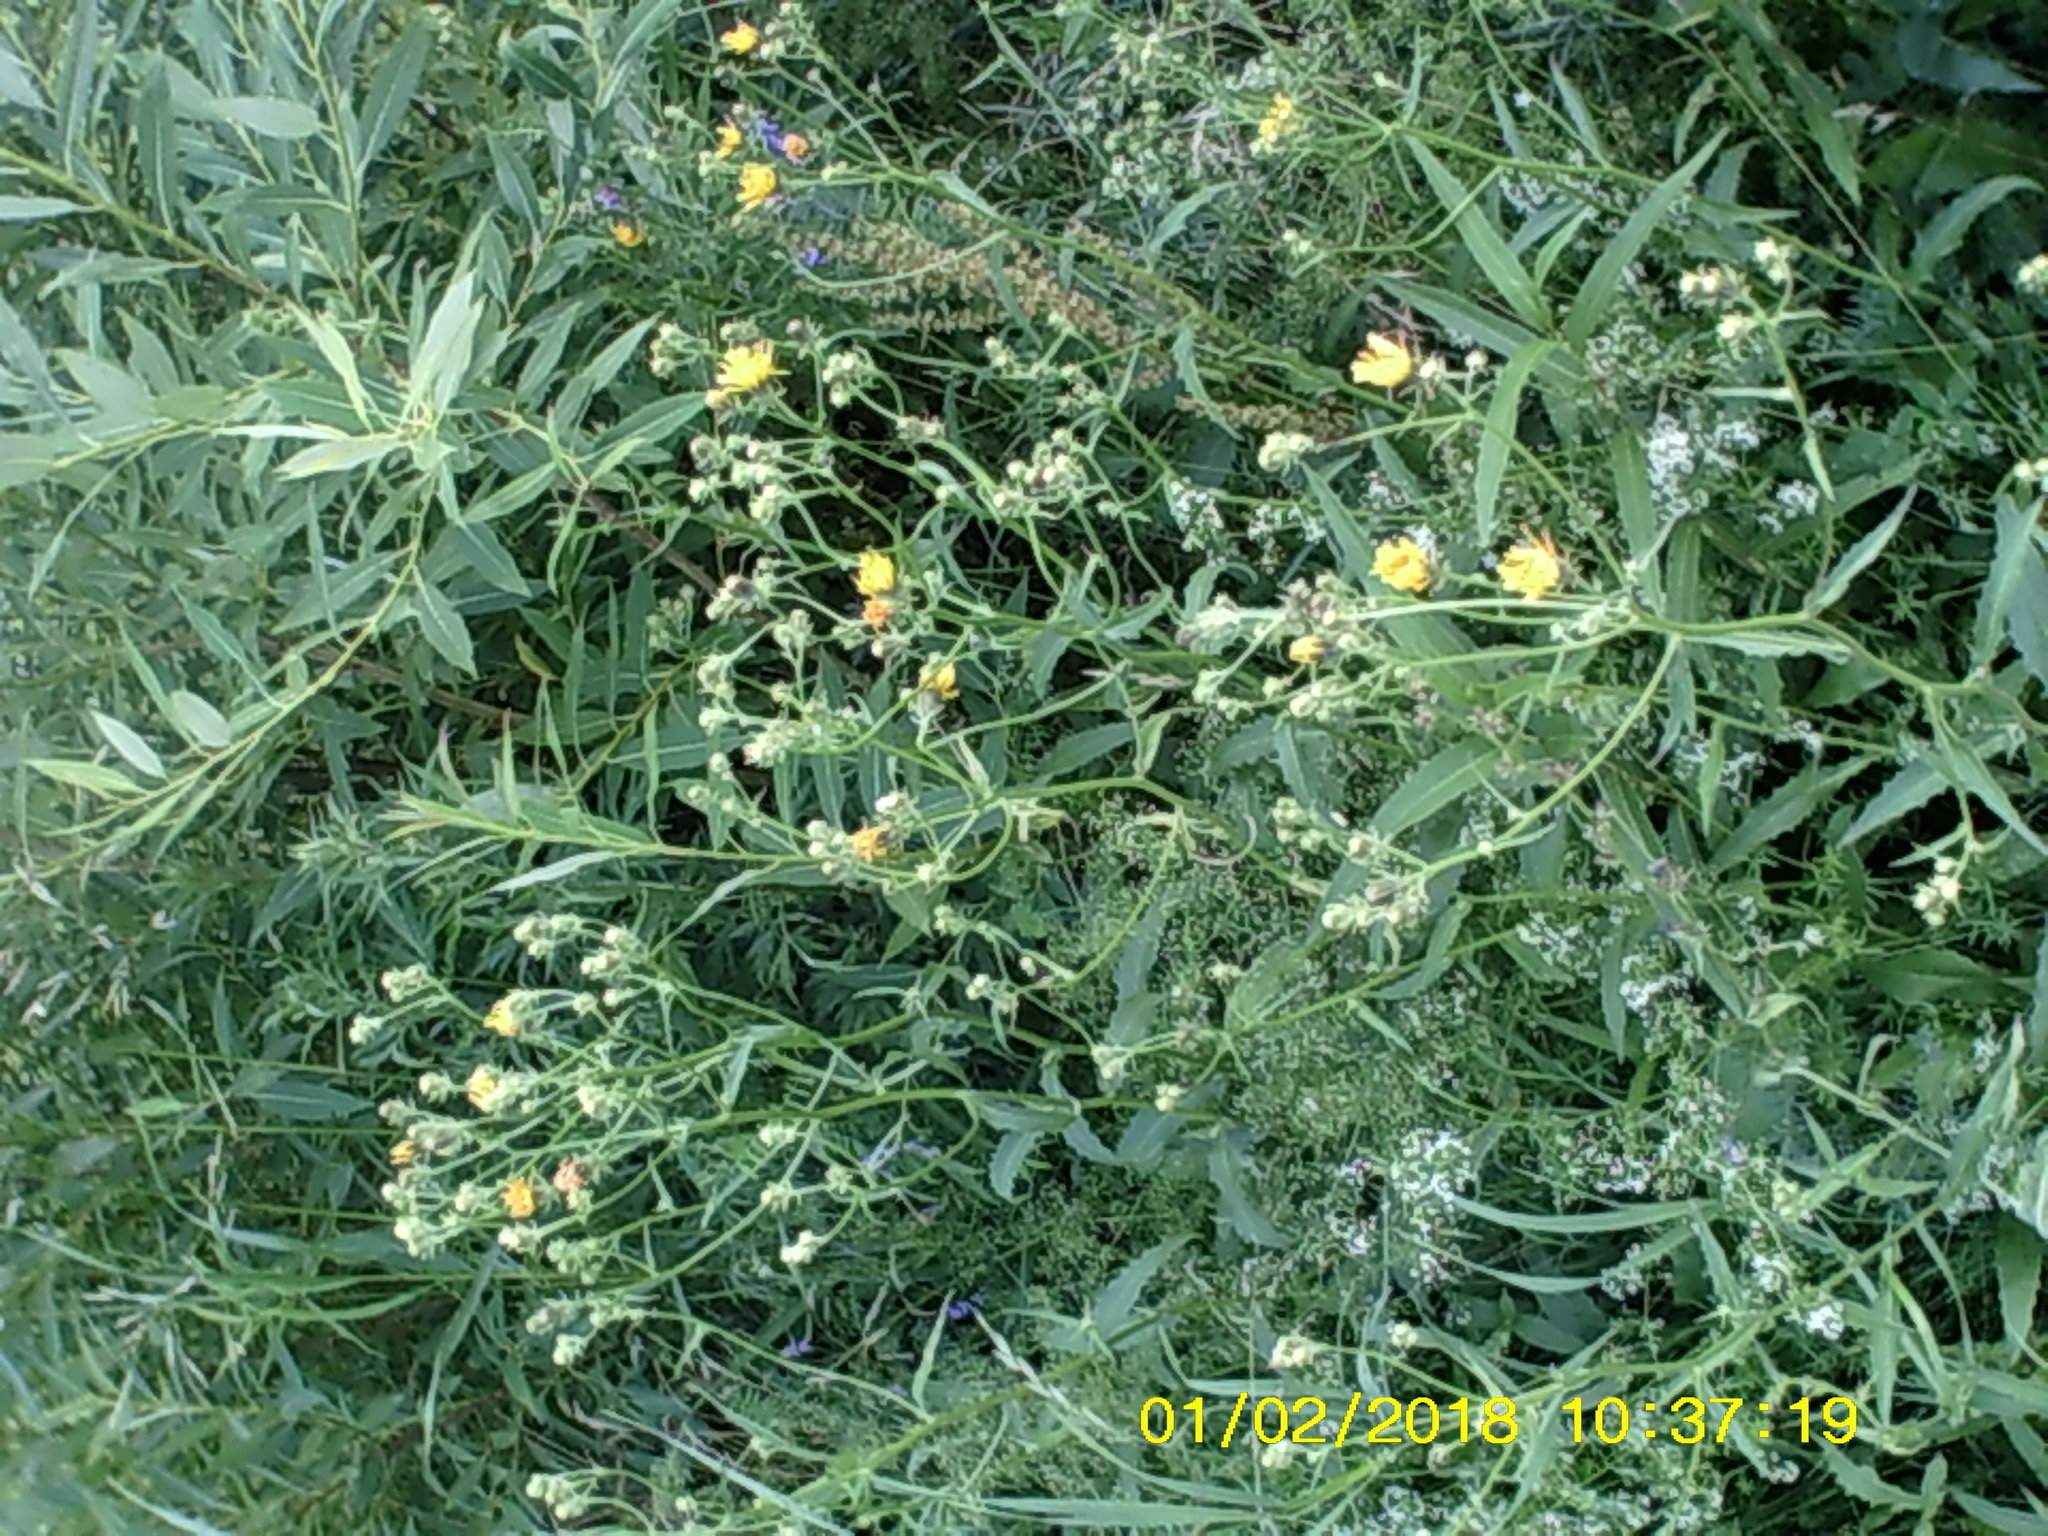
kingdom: Plantae
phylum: Tracheophyta
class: Magnoliopsida
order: Asterales
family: Asteraceae
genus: Picris
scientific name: Picris hieracioides
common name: Hawkweed oxtongue
